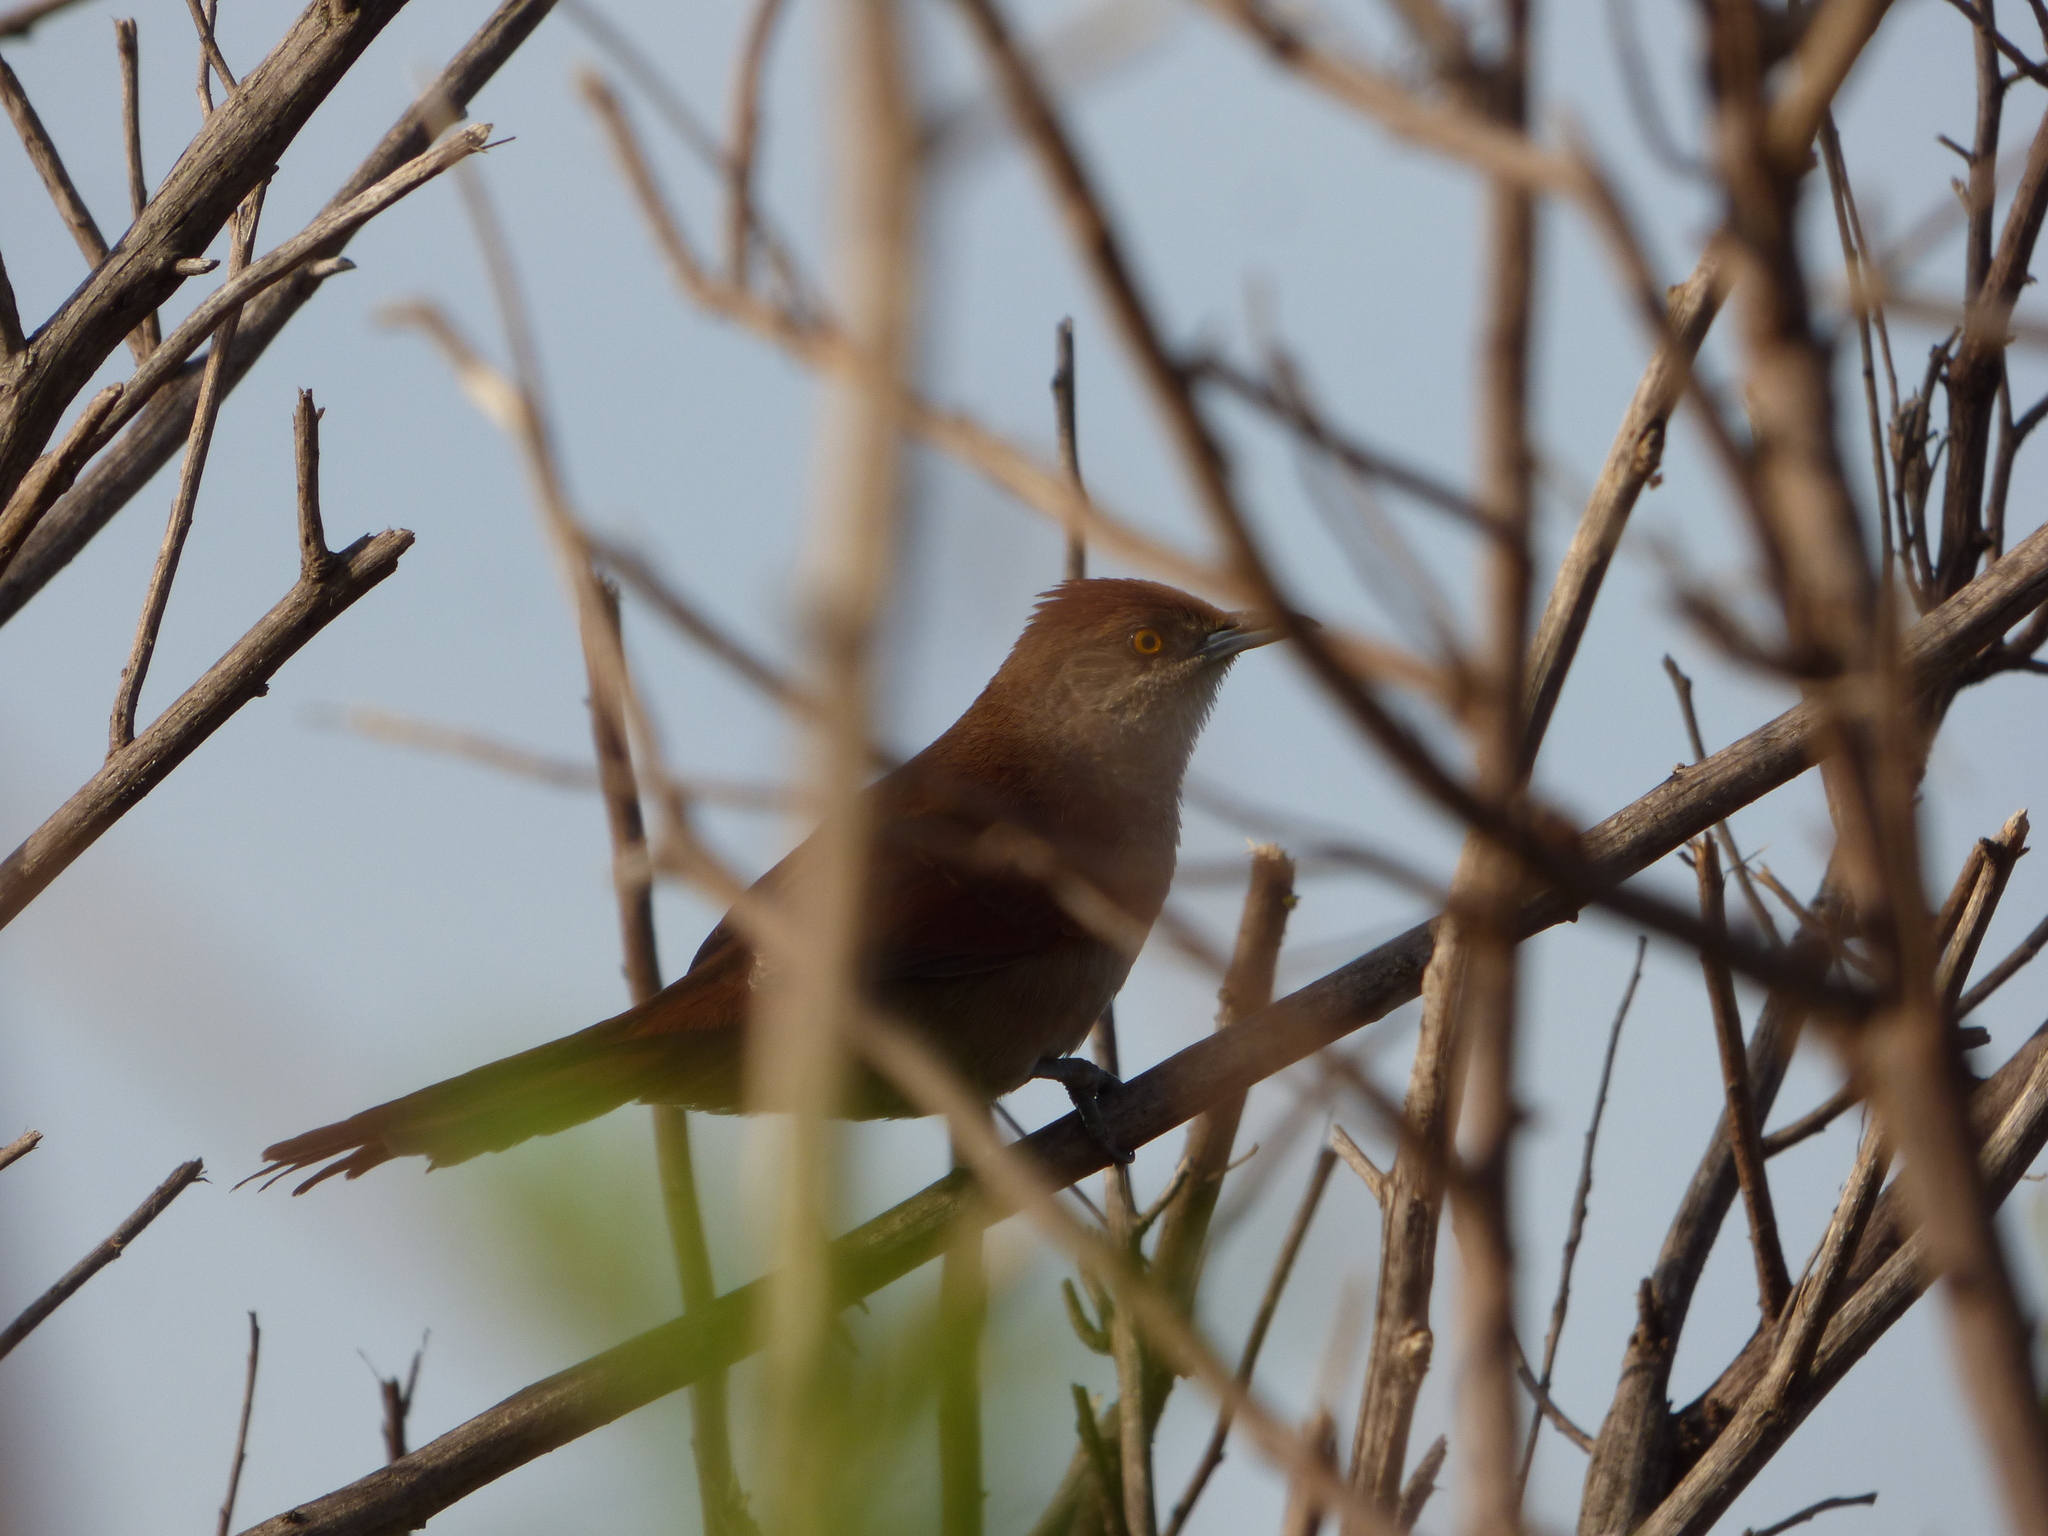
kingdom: Animalia
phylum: Chordata
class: Aves
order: Passeriformes
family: Furnariidae
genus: Phacellodomus
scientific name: Phacellodomus ruber
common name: Greater thornbird
